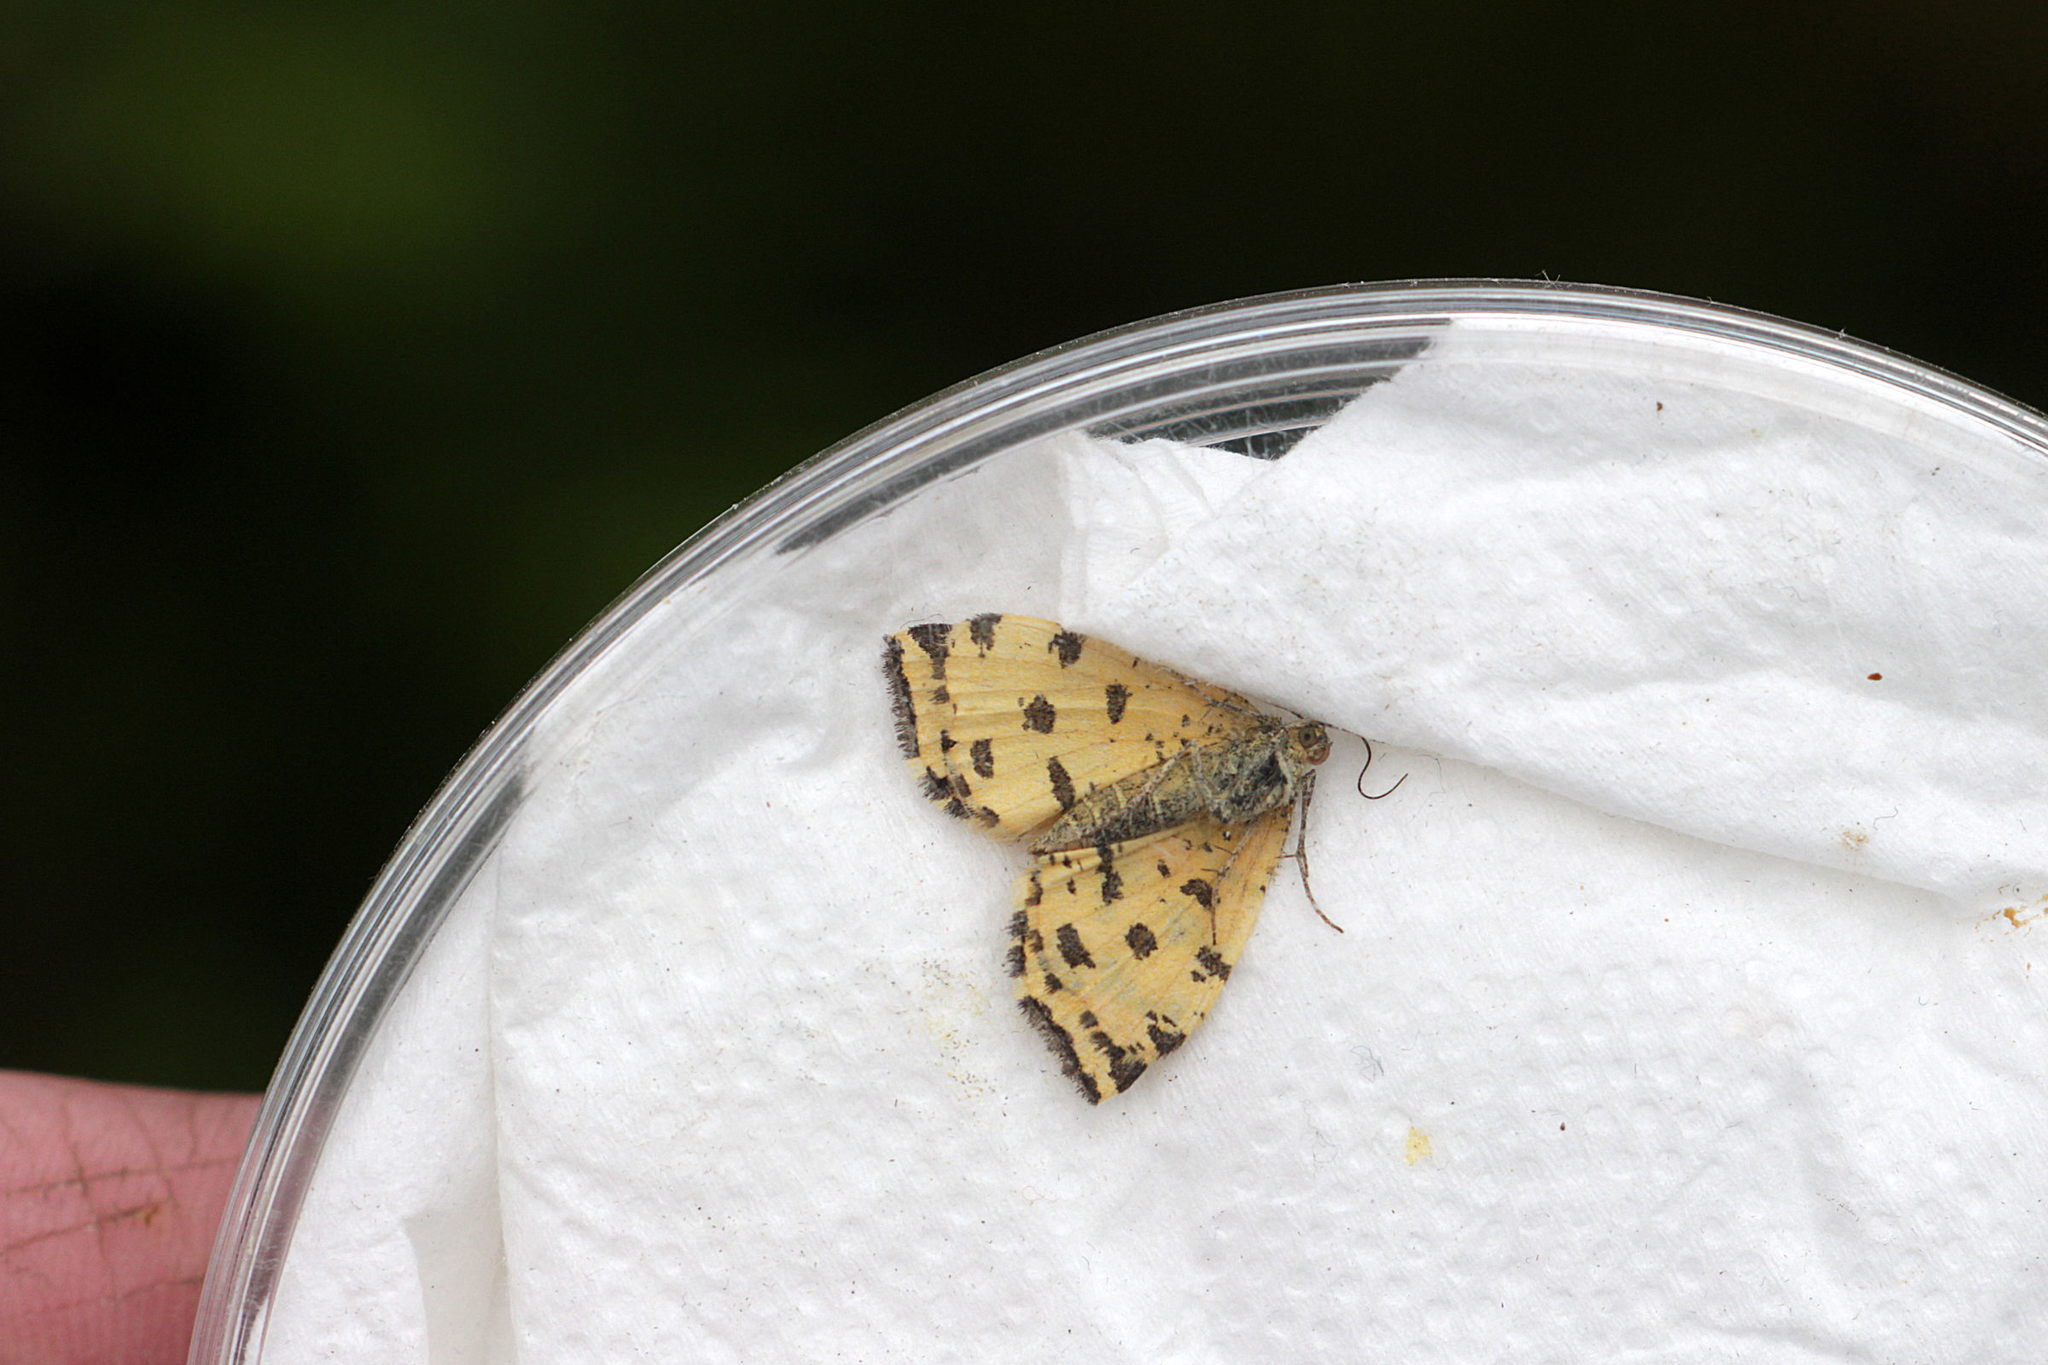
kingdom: Animalia
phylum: Arthropoda
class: Insecta
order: Lepidoptera
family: Geometridae
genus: Pseudopanthera
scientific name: Pseudopanthera macularia
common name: Speckled yellow
